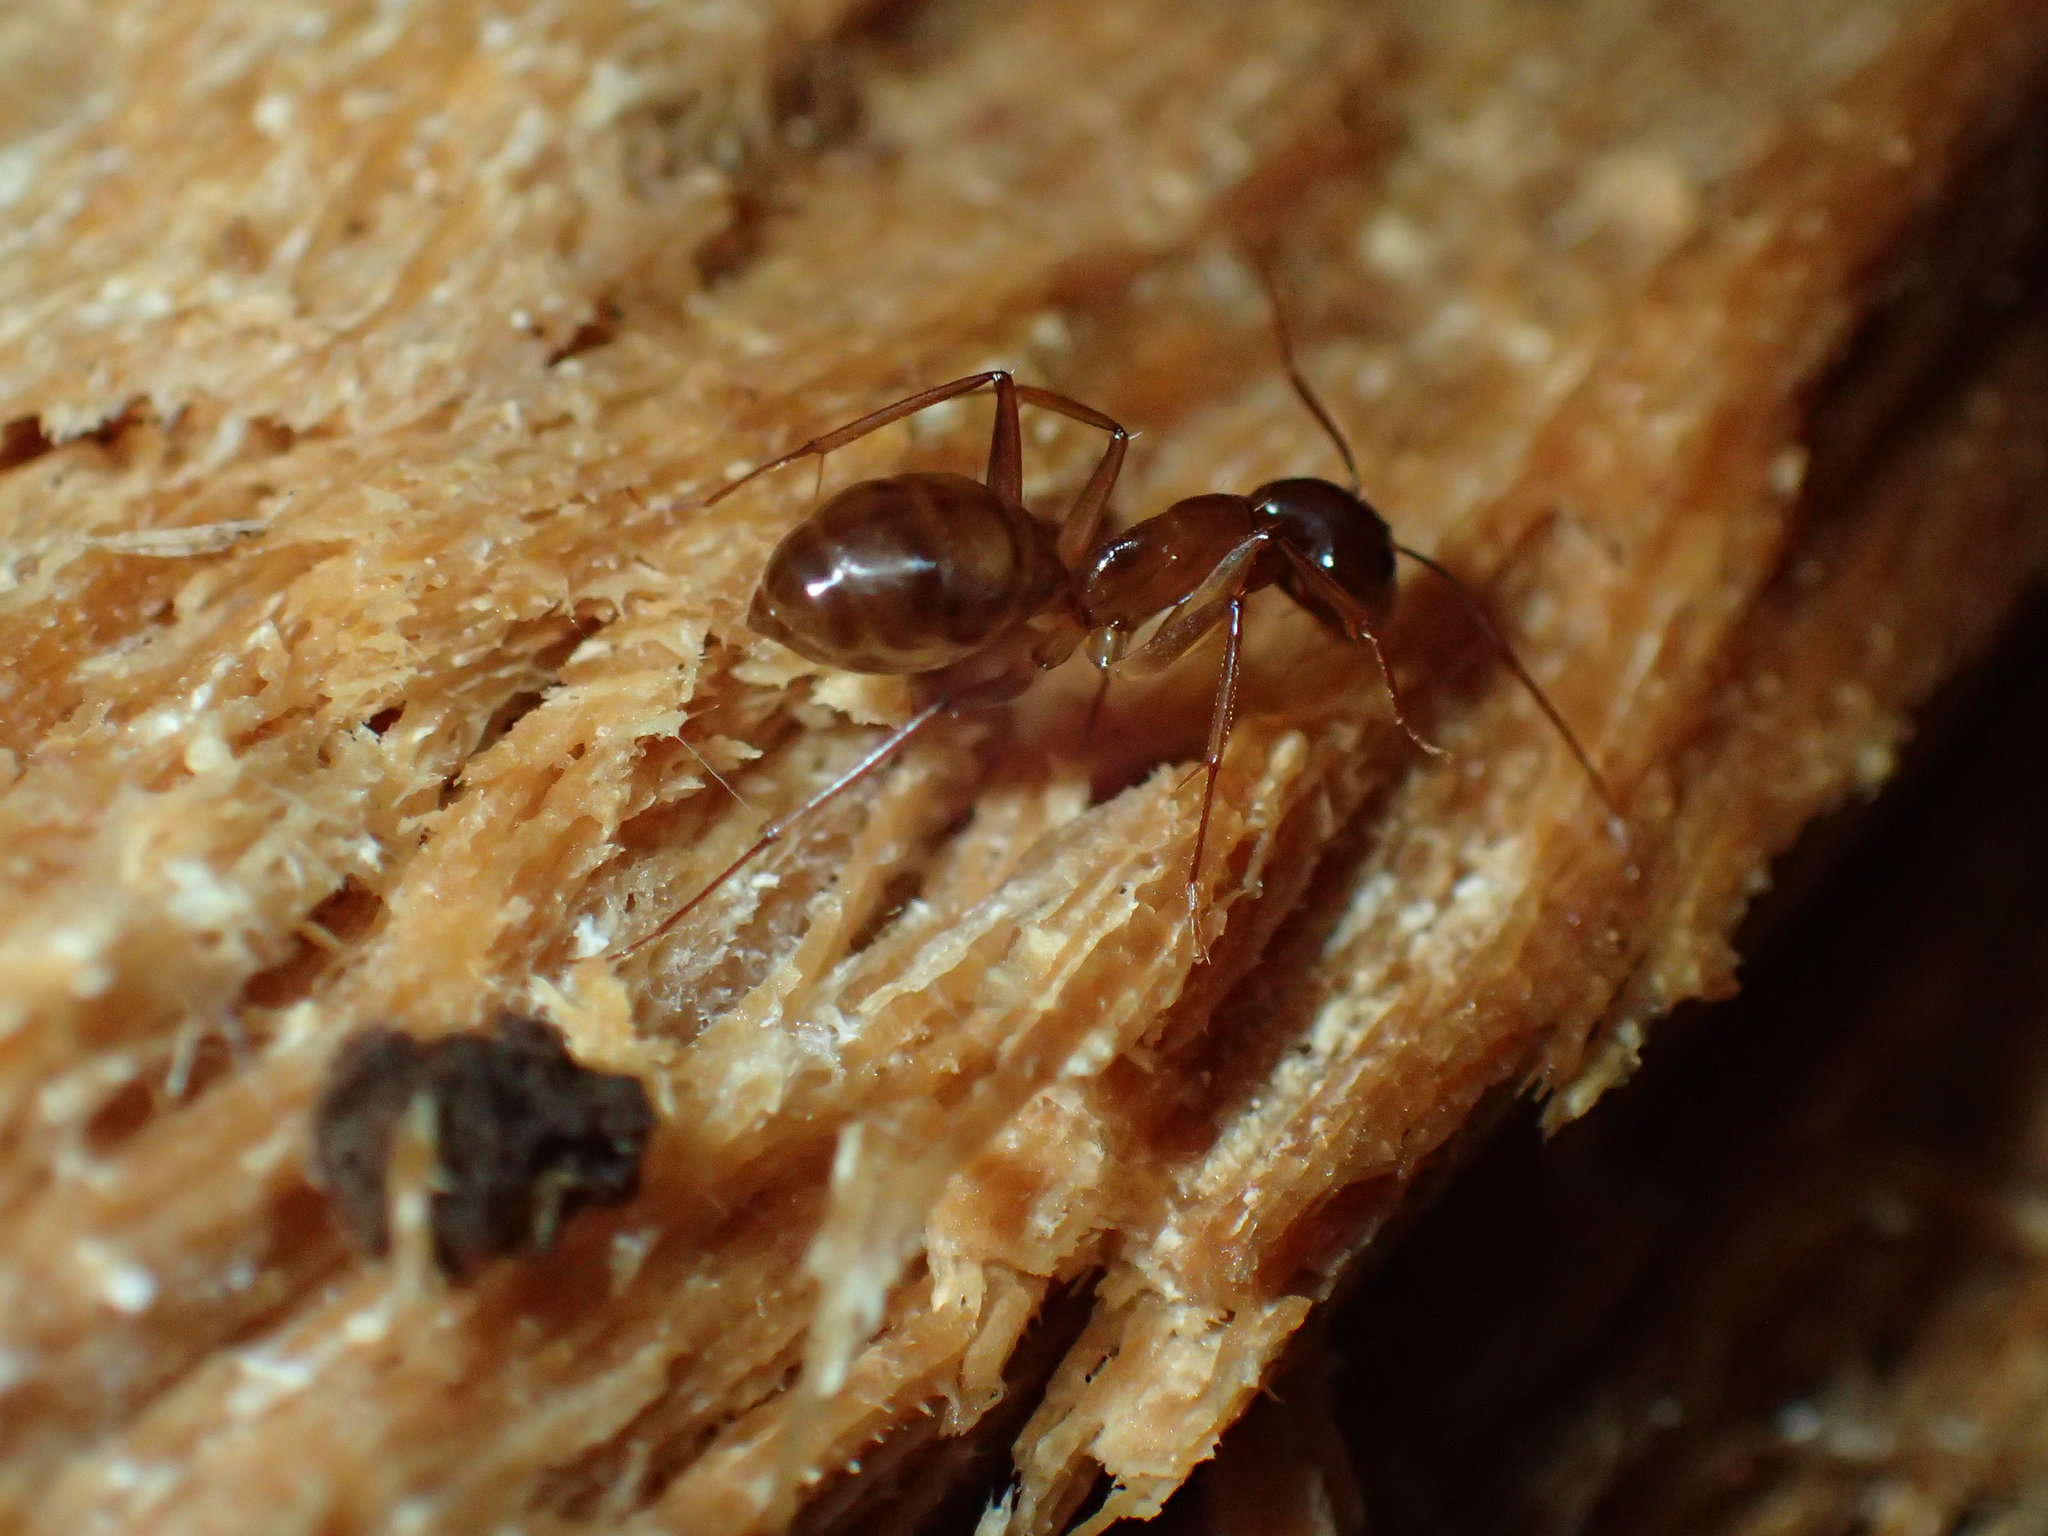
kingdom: Animalia
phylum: Arthropoda
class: Insecta
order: Hymenoptera
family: Formicidae
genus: Camponotus
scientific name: Camponotus maculatus
